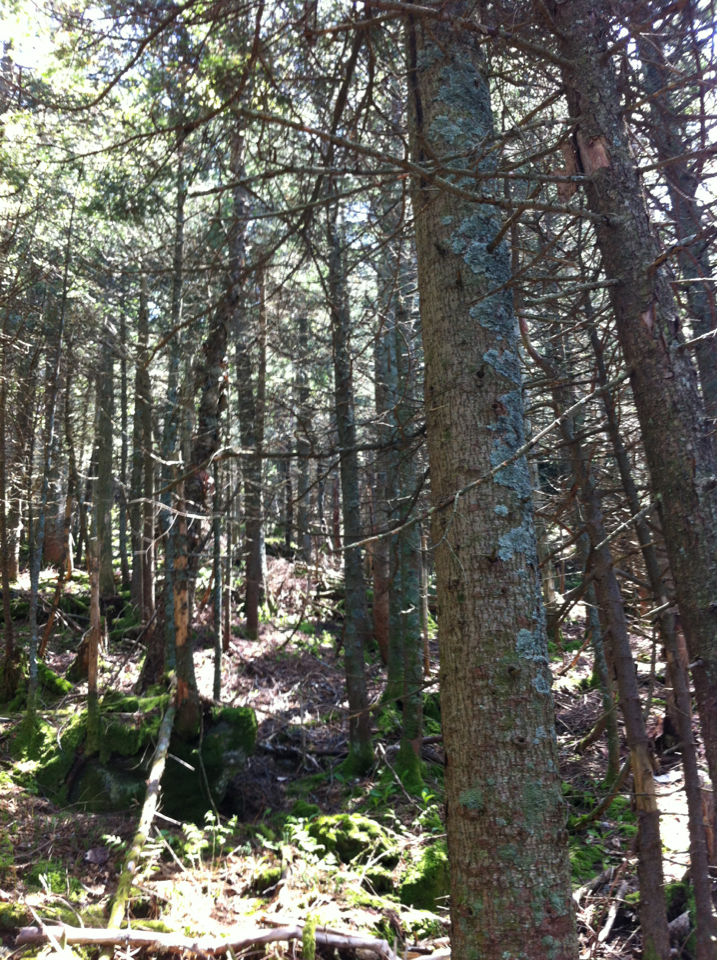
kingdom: Plantae
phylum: Tracheophyta
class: Pinopsida
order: Pinales
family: Pinaceae
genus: Picea
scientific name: Picea rubens
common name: Red spruce
